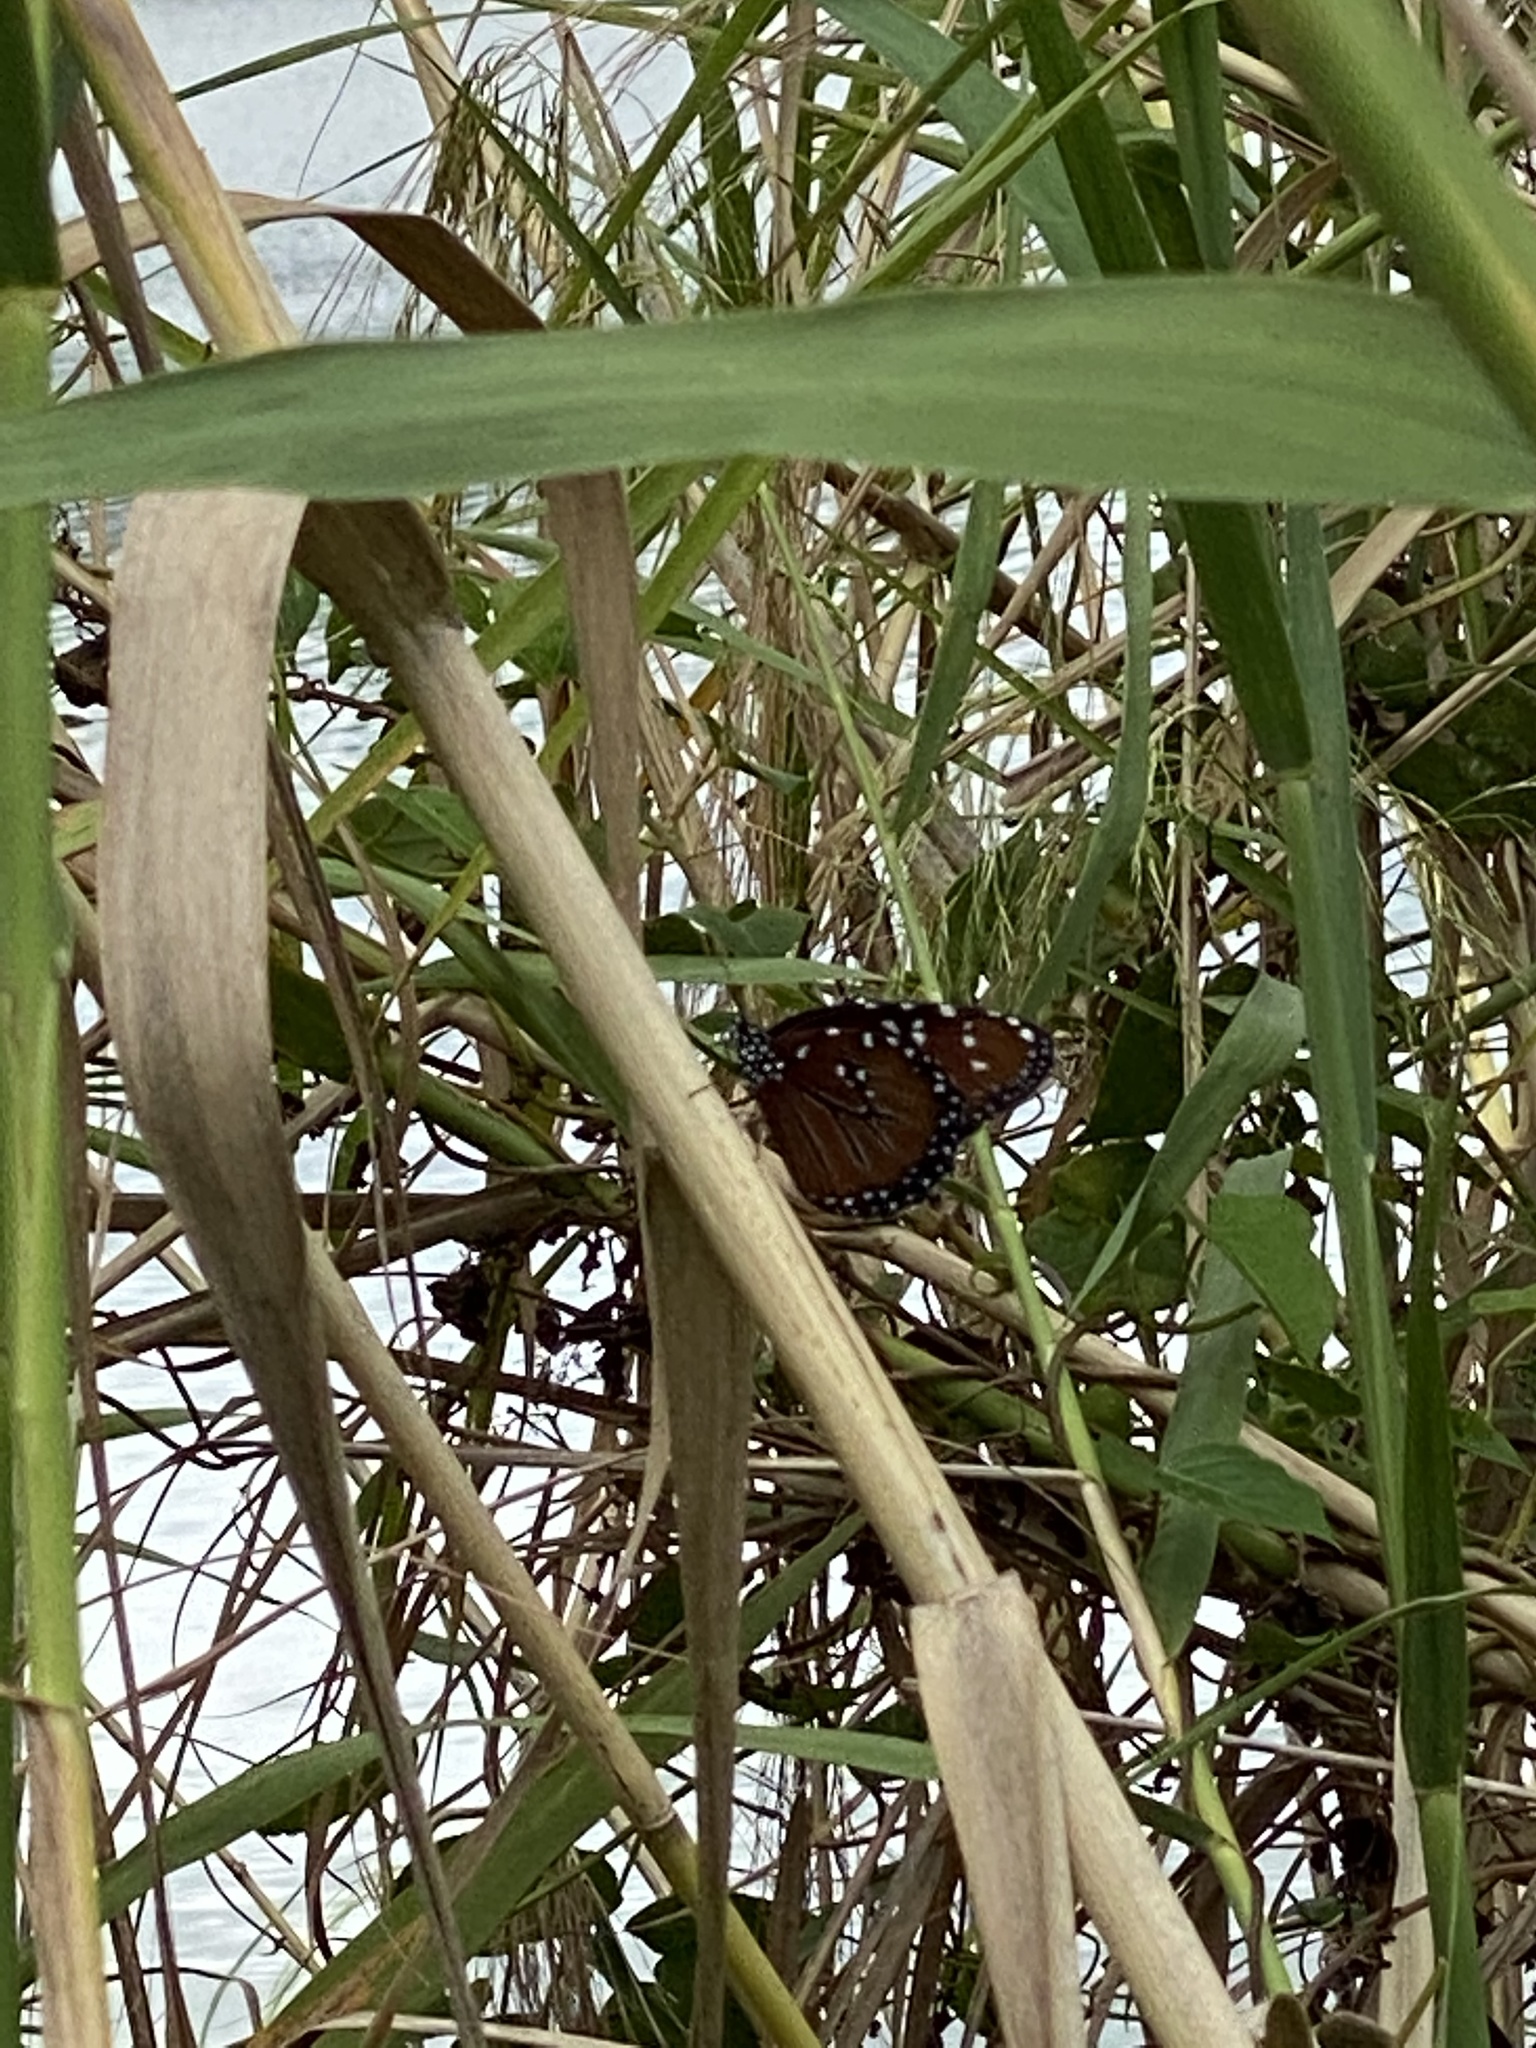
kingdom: Animalia
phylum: Arthropoda
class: Insecta
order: Lepidoptera
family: Nymphalidae
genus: Danaus
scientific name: Danaus gilippus
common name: Queen
